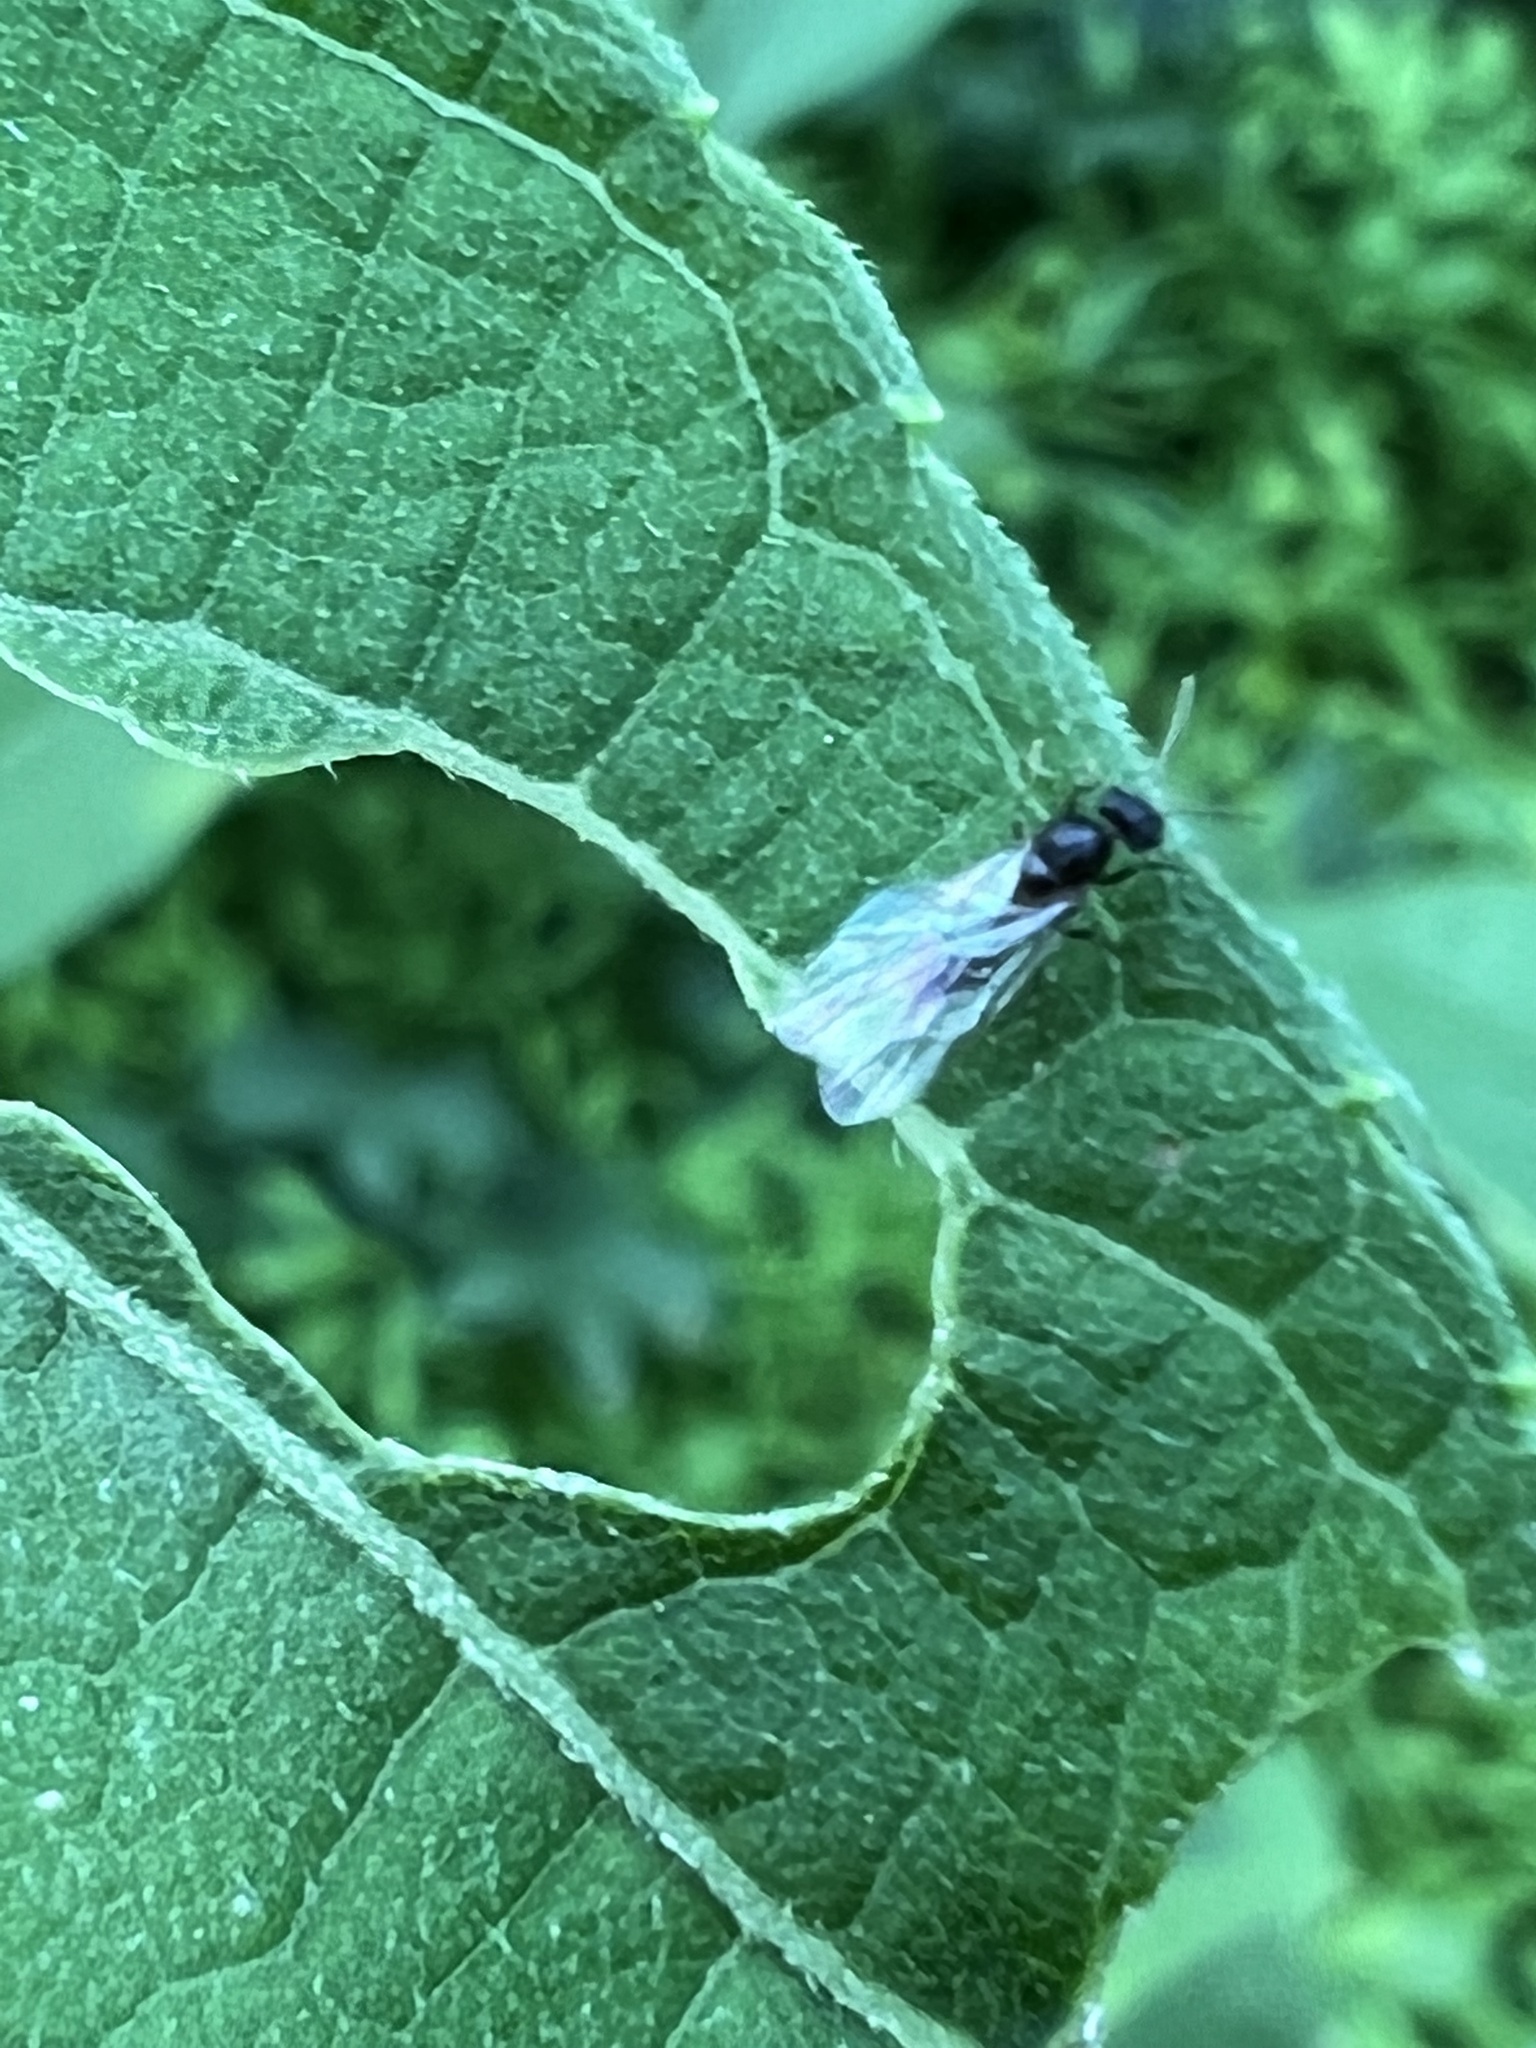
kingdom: Animalia
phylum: Arthropoda
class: Insecta
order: Hymenoptera
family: Formicidae
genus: Lasius
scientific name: Lasius americanus
